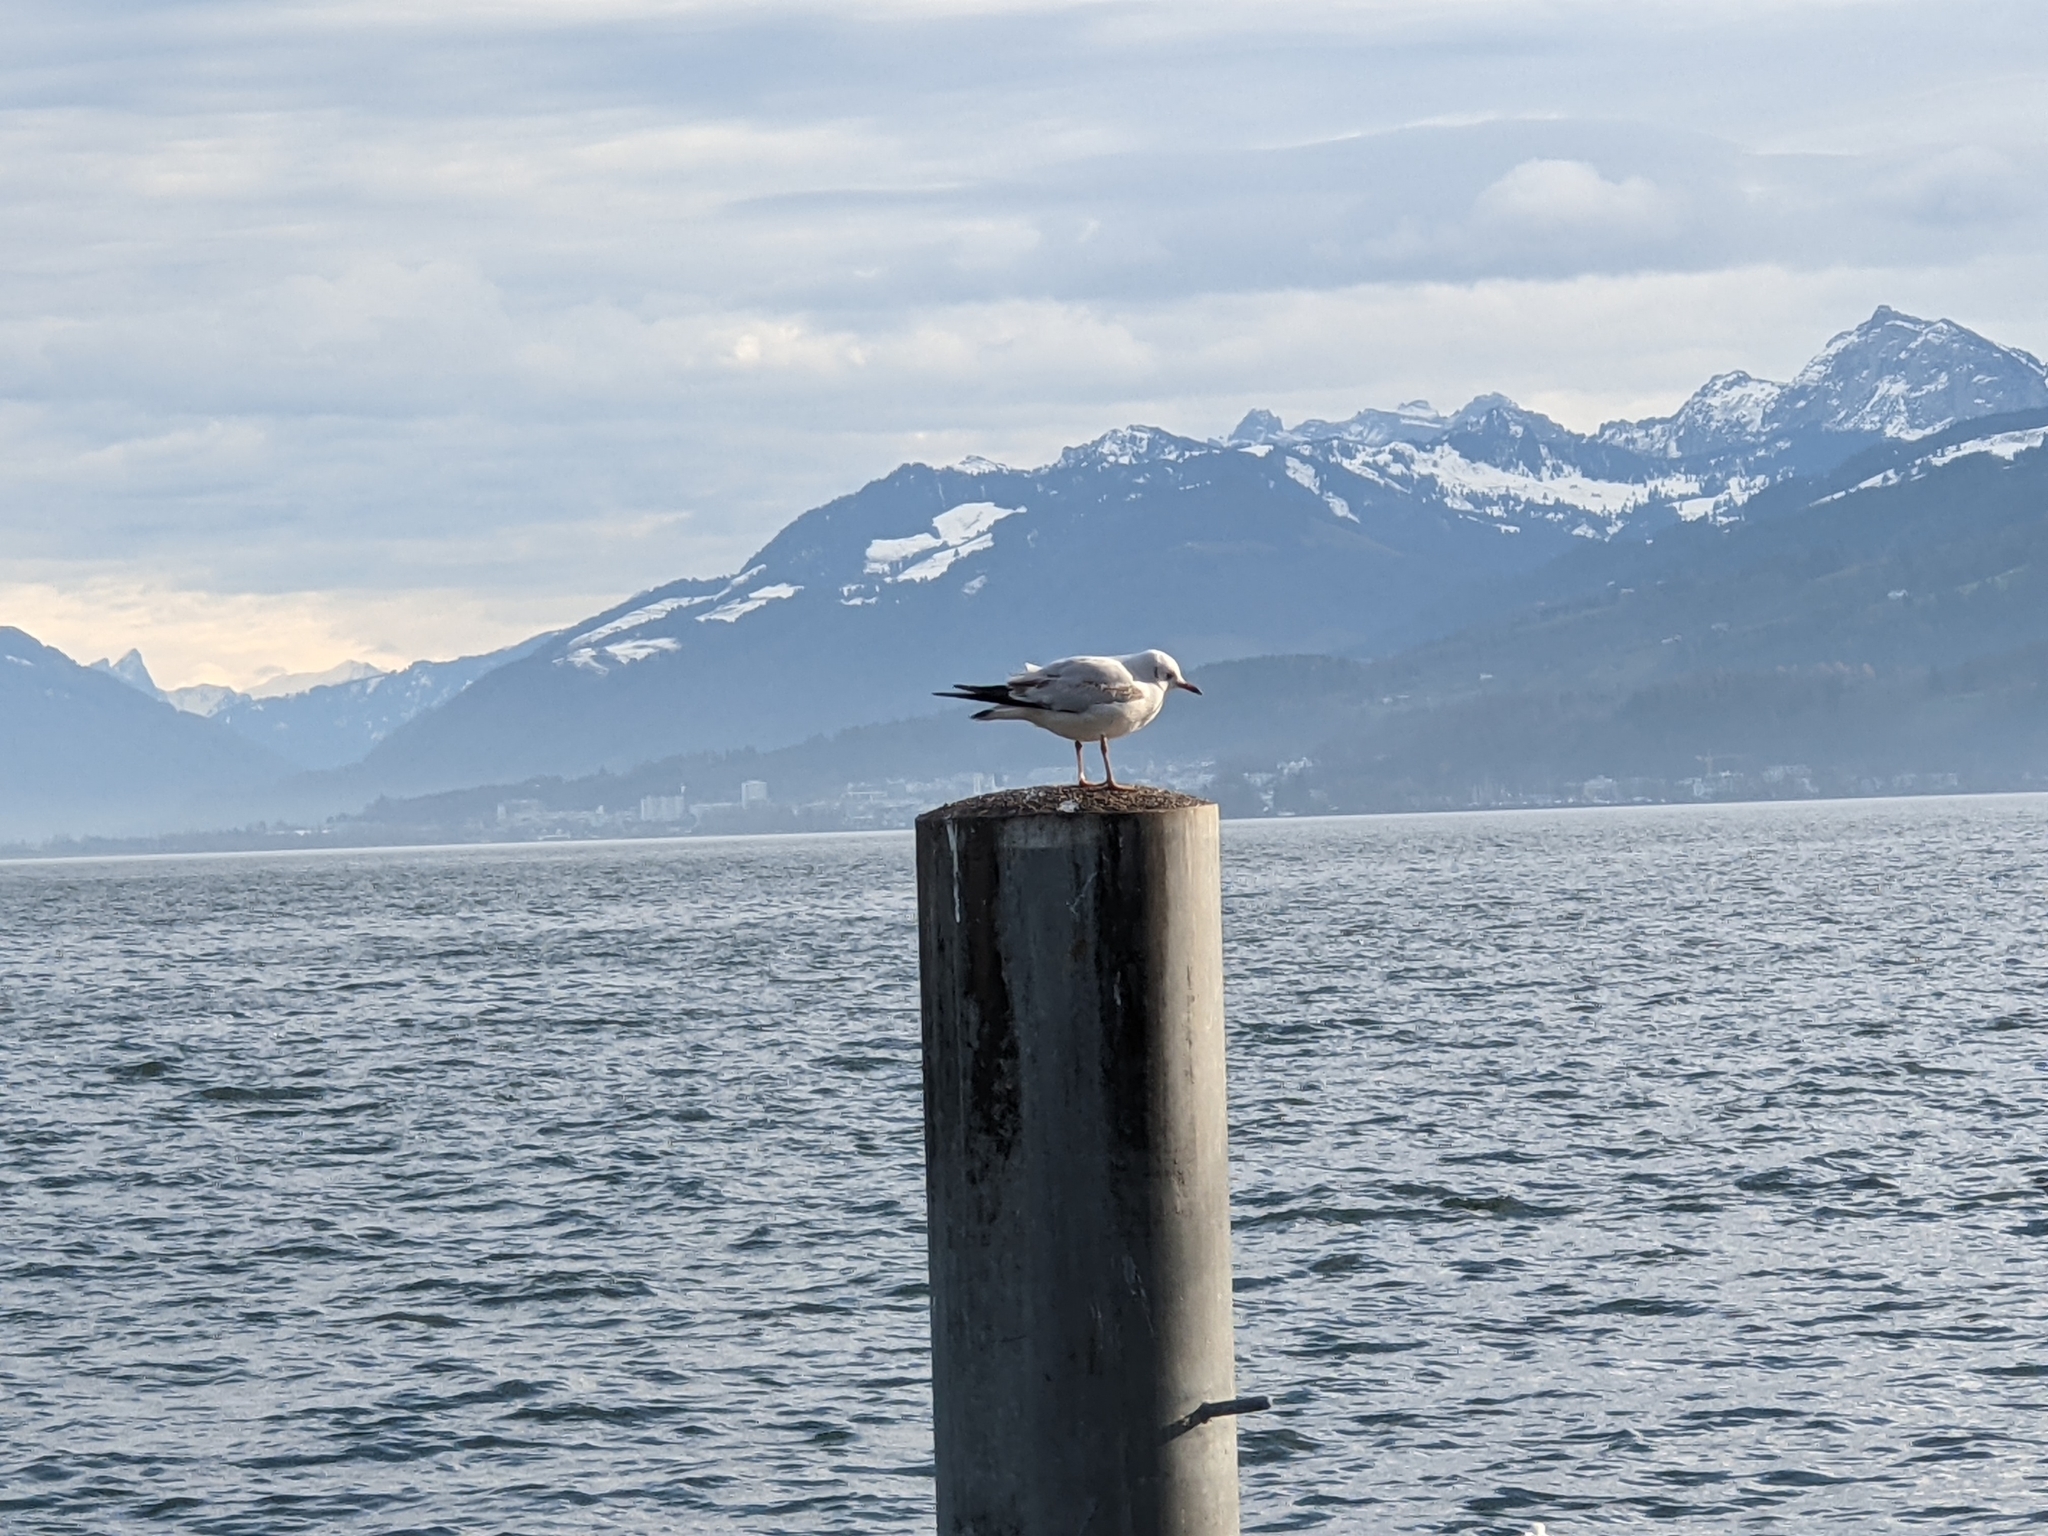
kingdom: Animalia
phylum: Chordata
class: Aves
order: Charadriiformes
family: Laridae
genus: Chroicocephalus
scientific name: Chroicocephalus ridibundus
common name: Black-headed gull
